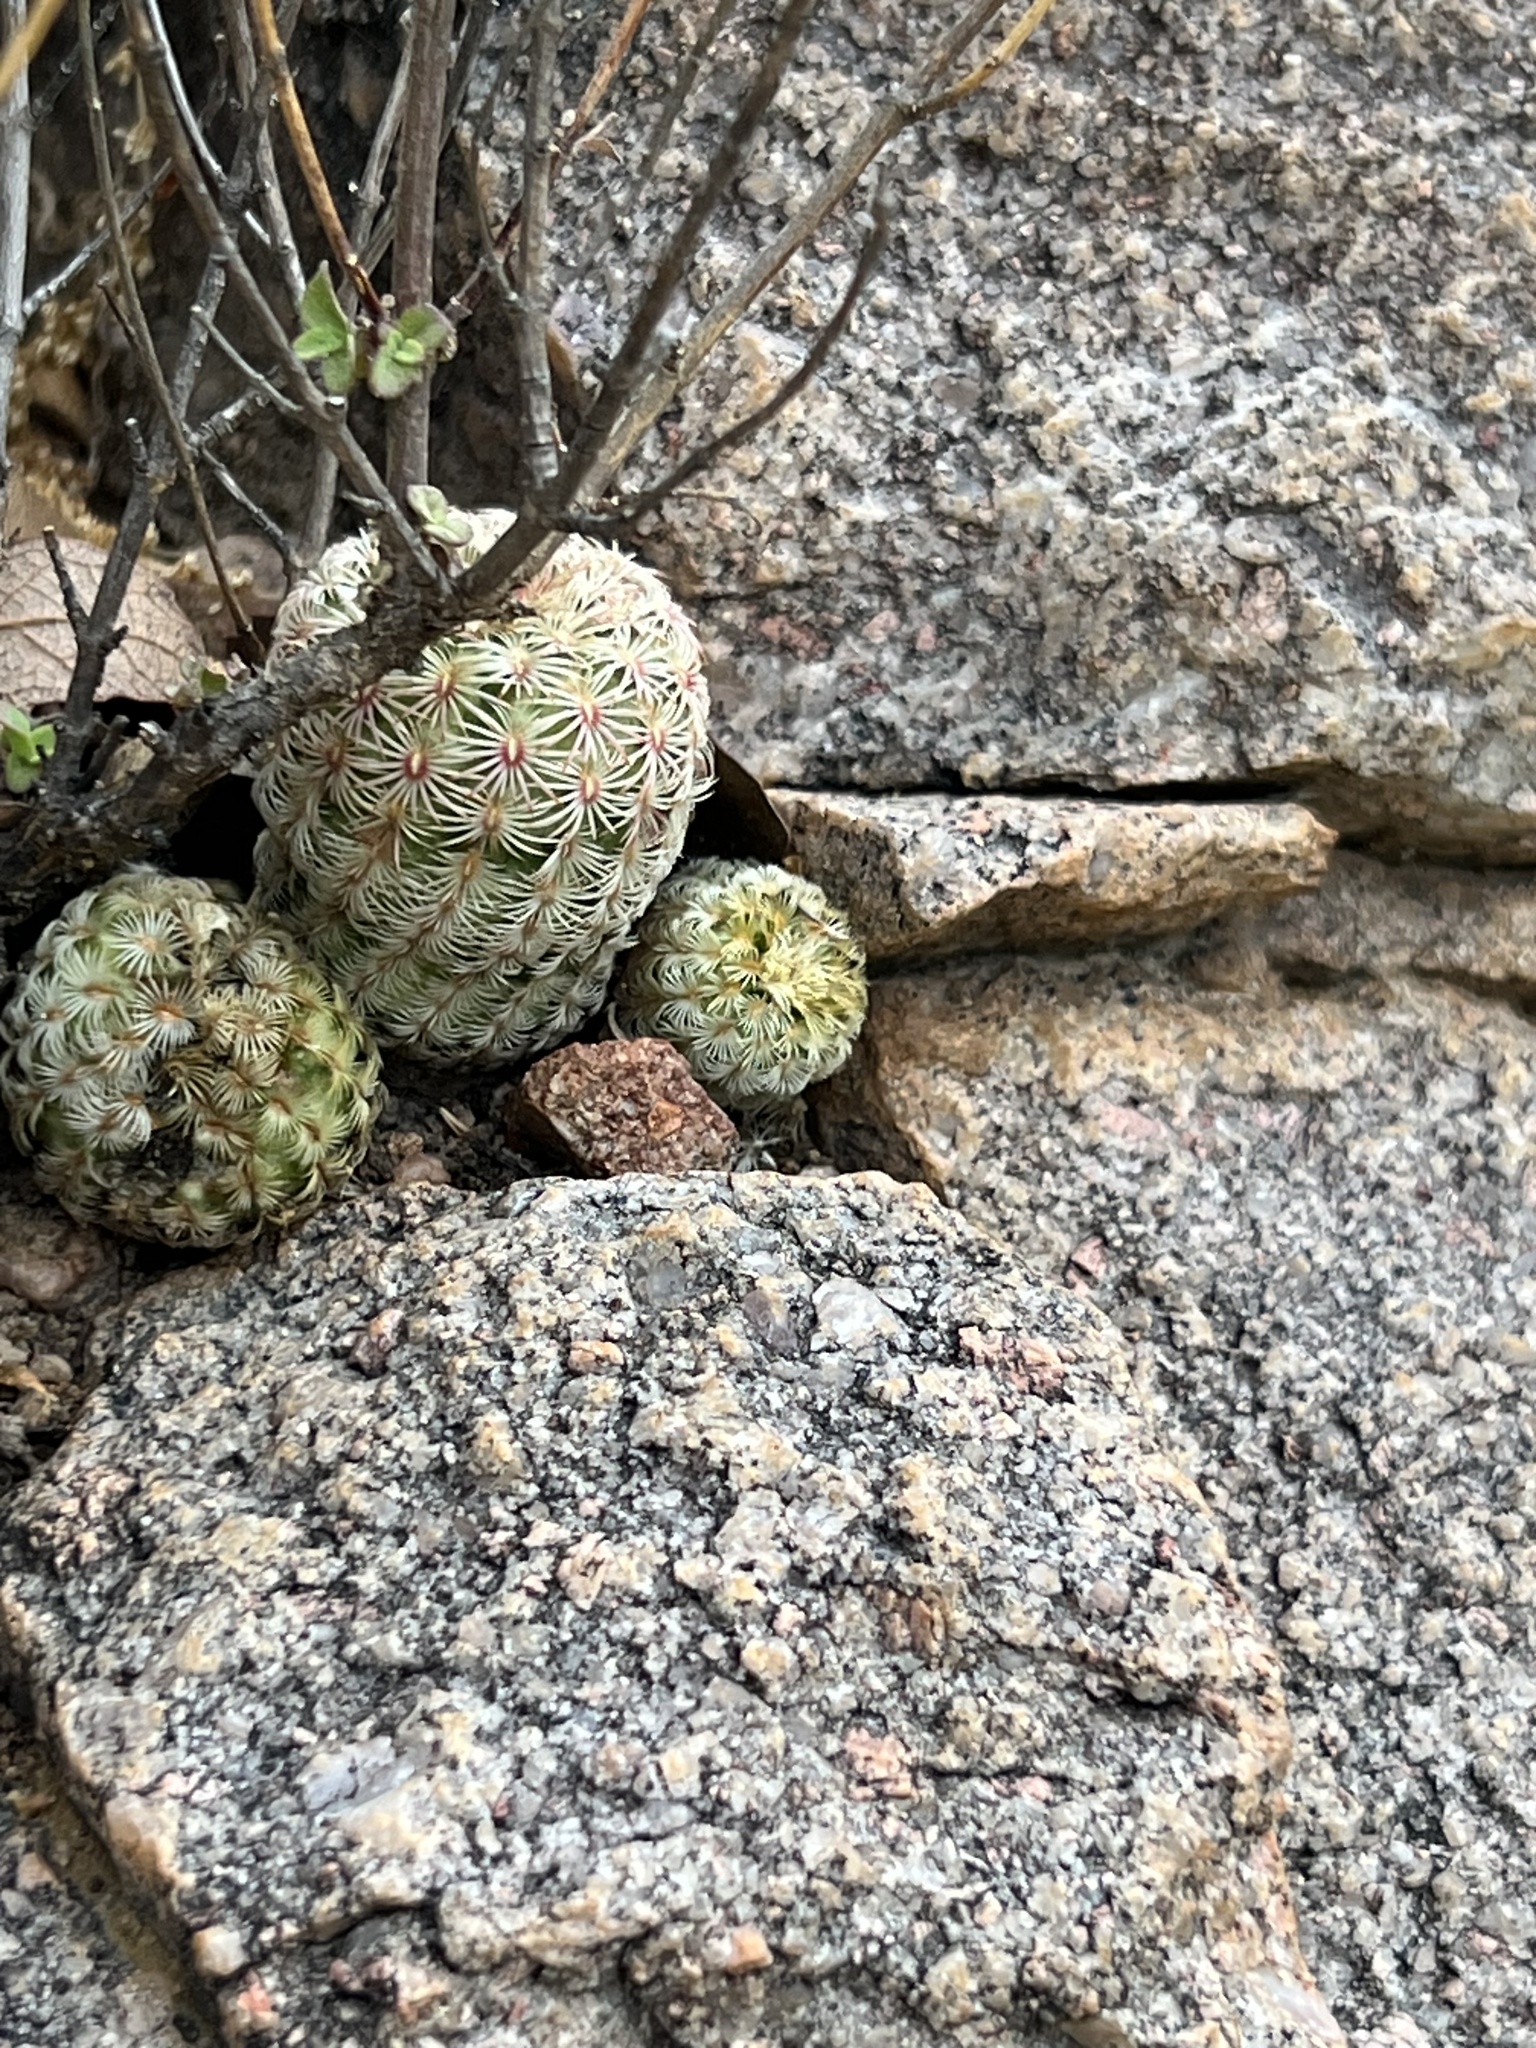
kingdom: Plantae
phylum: Tracheophyta
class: Magnoliopsida
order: Caryophyllales
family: Cactaceae
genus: Echinocereus
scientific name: Echinocereus rigidissimus
